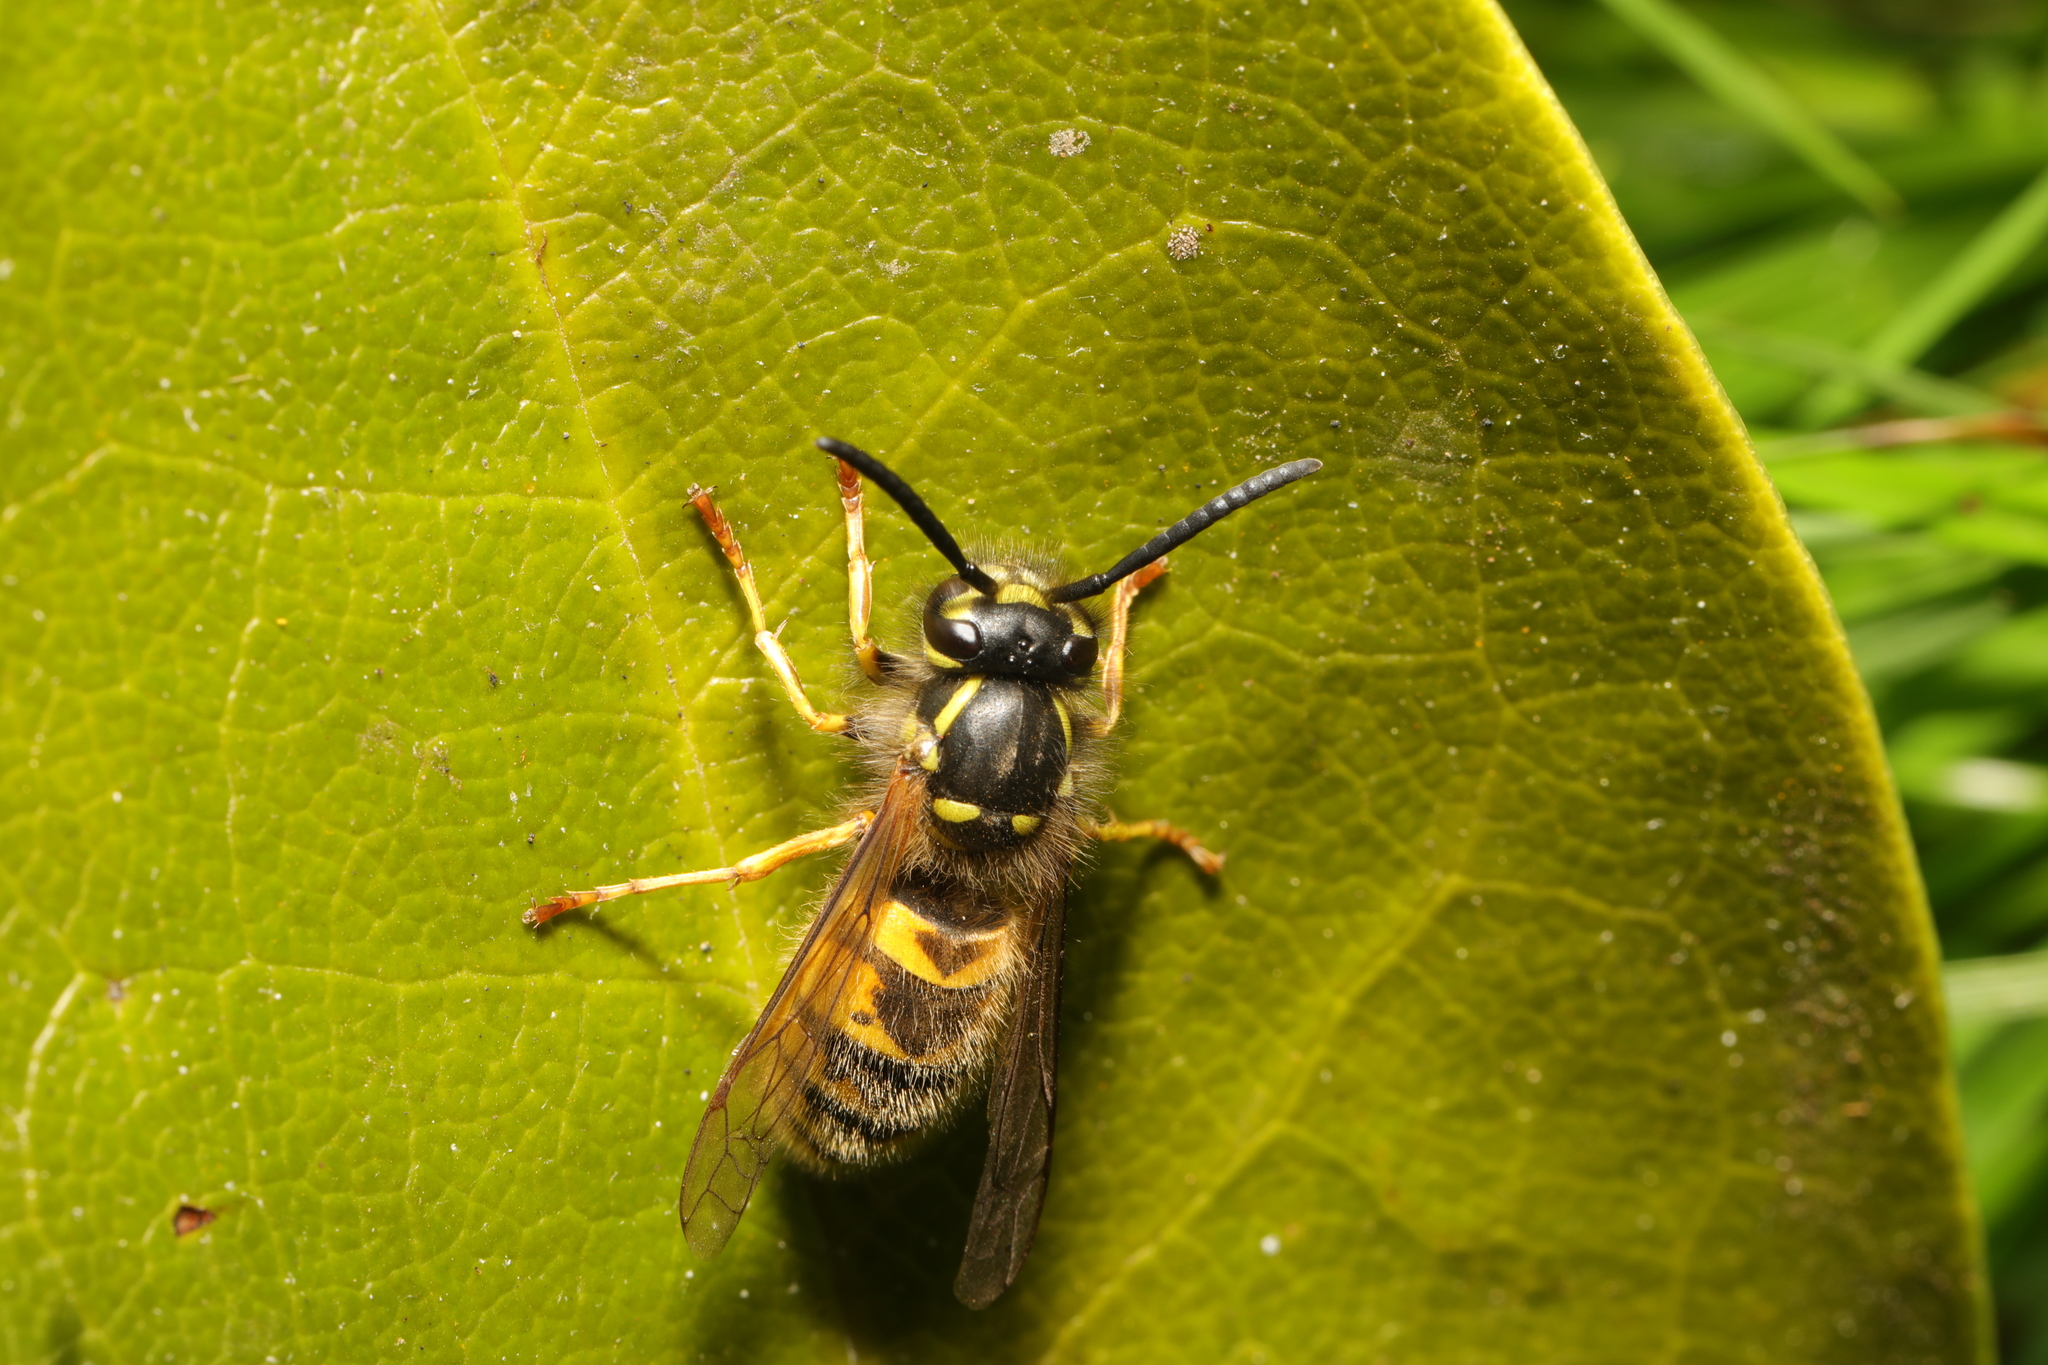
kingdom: Animalia
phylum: Arthropoda
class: Insecta
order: Hymenoptera
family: Vespidae
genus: Vespula
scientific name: Vespula vulgaris
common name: Common wasp
